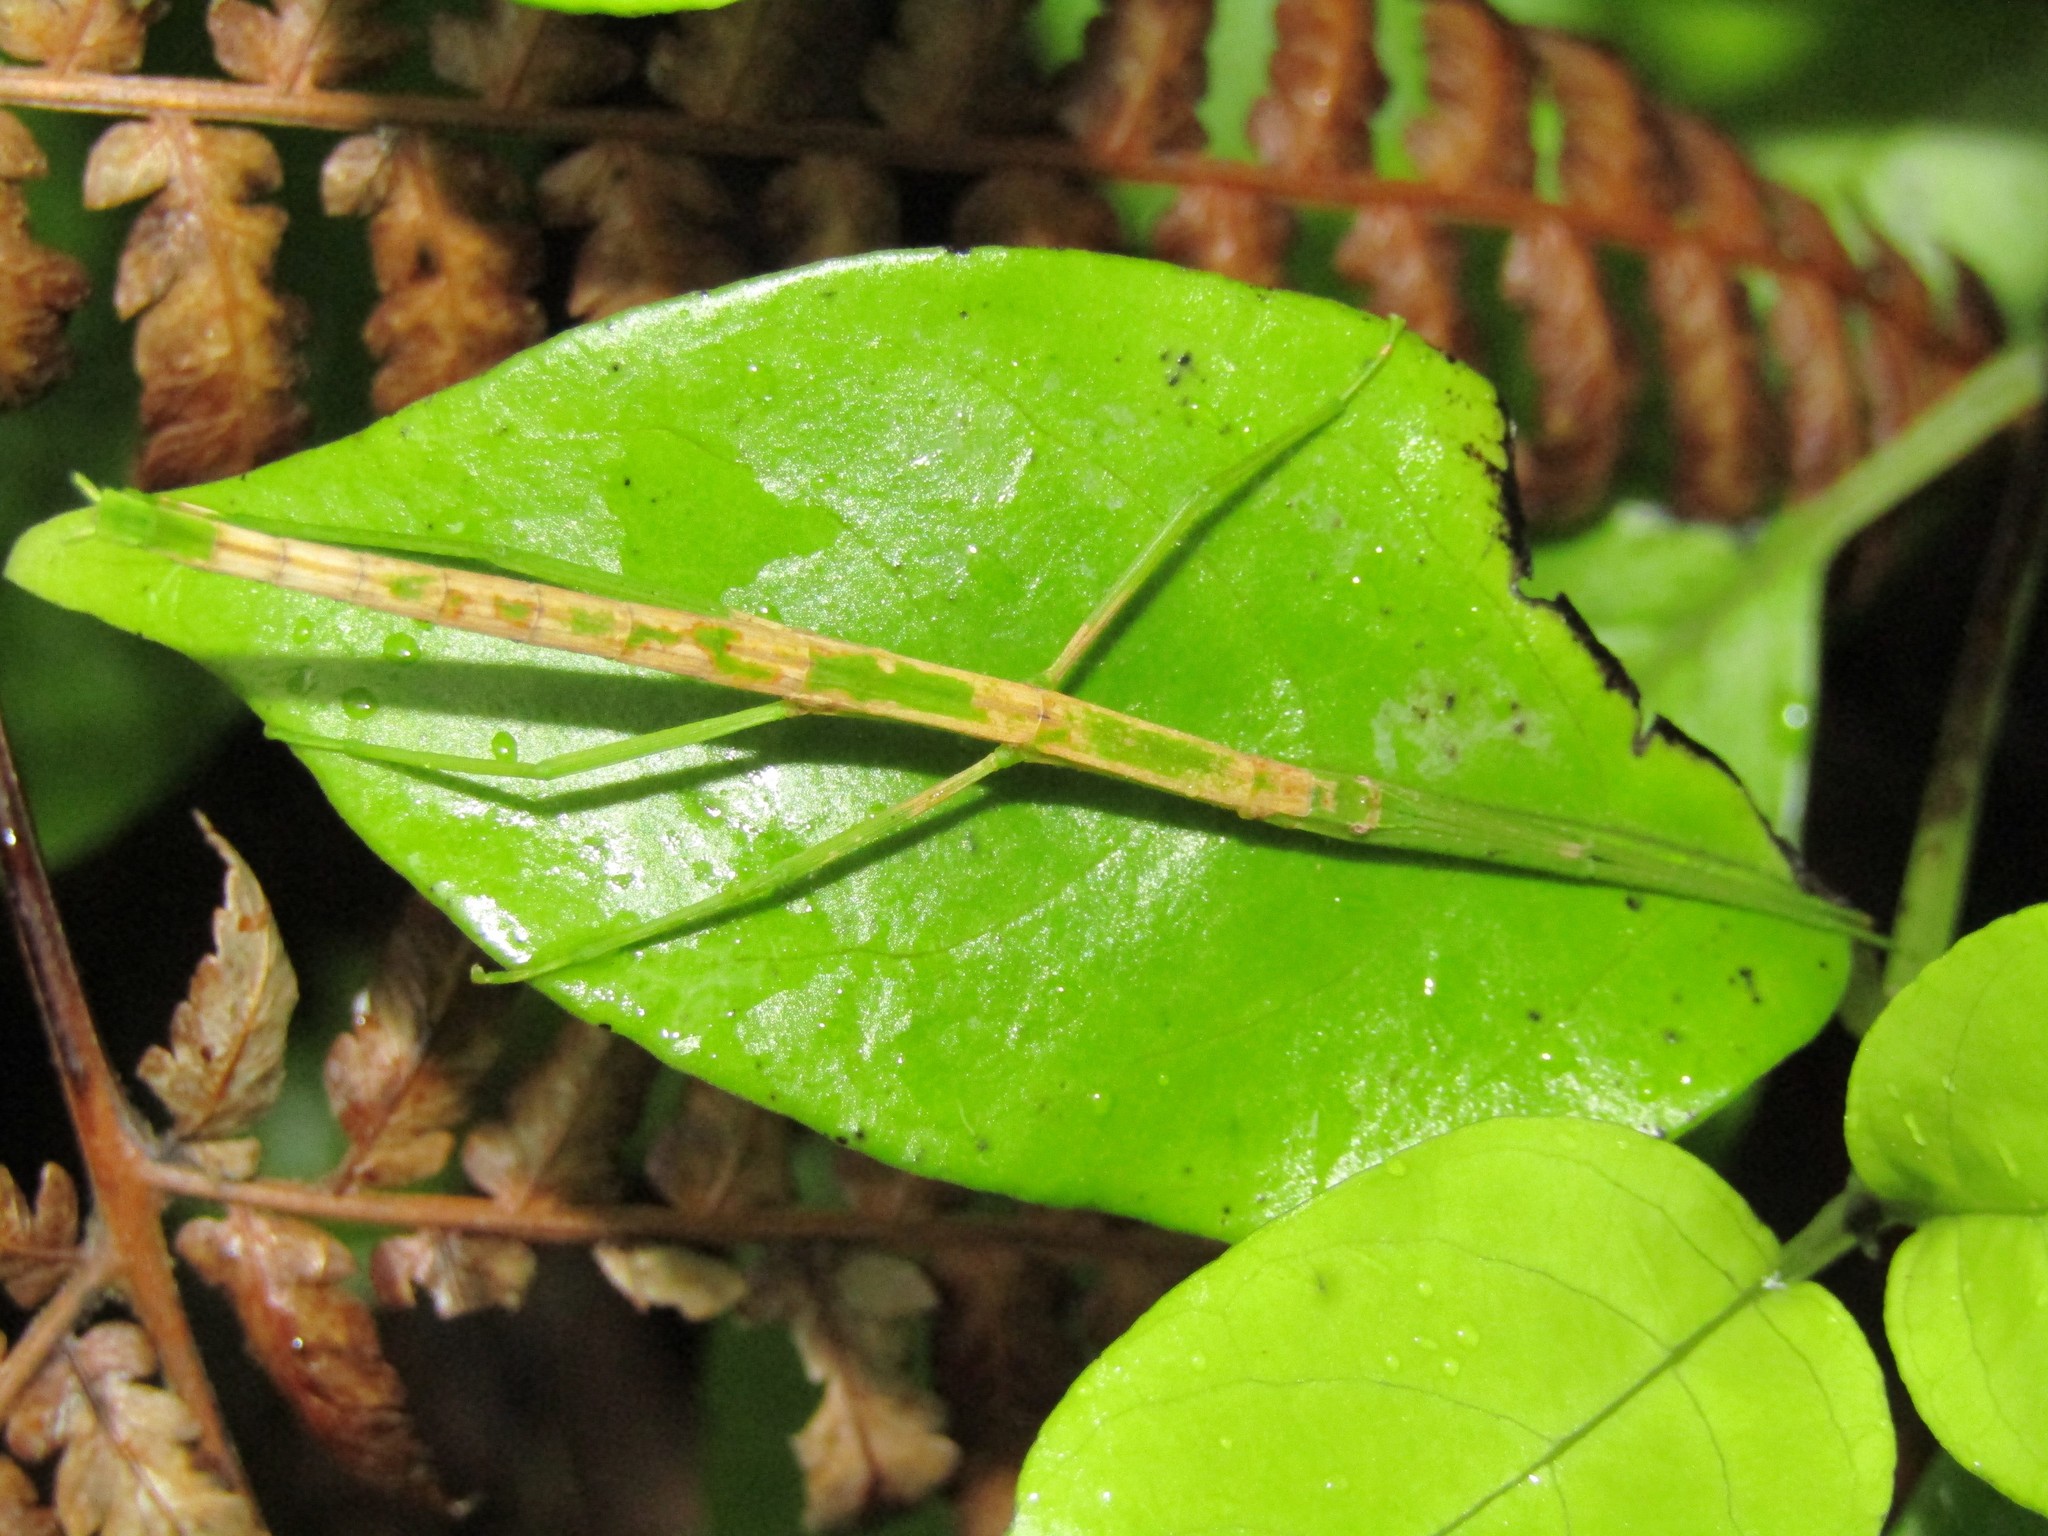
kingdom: Animalia
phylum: Arthropoda
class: Insecta
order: Phasmida
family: Phasmatidae
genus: Tectarchus
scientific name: Tectarchus huttoni
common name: The common ridge-backed stick insect
